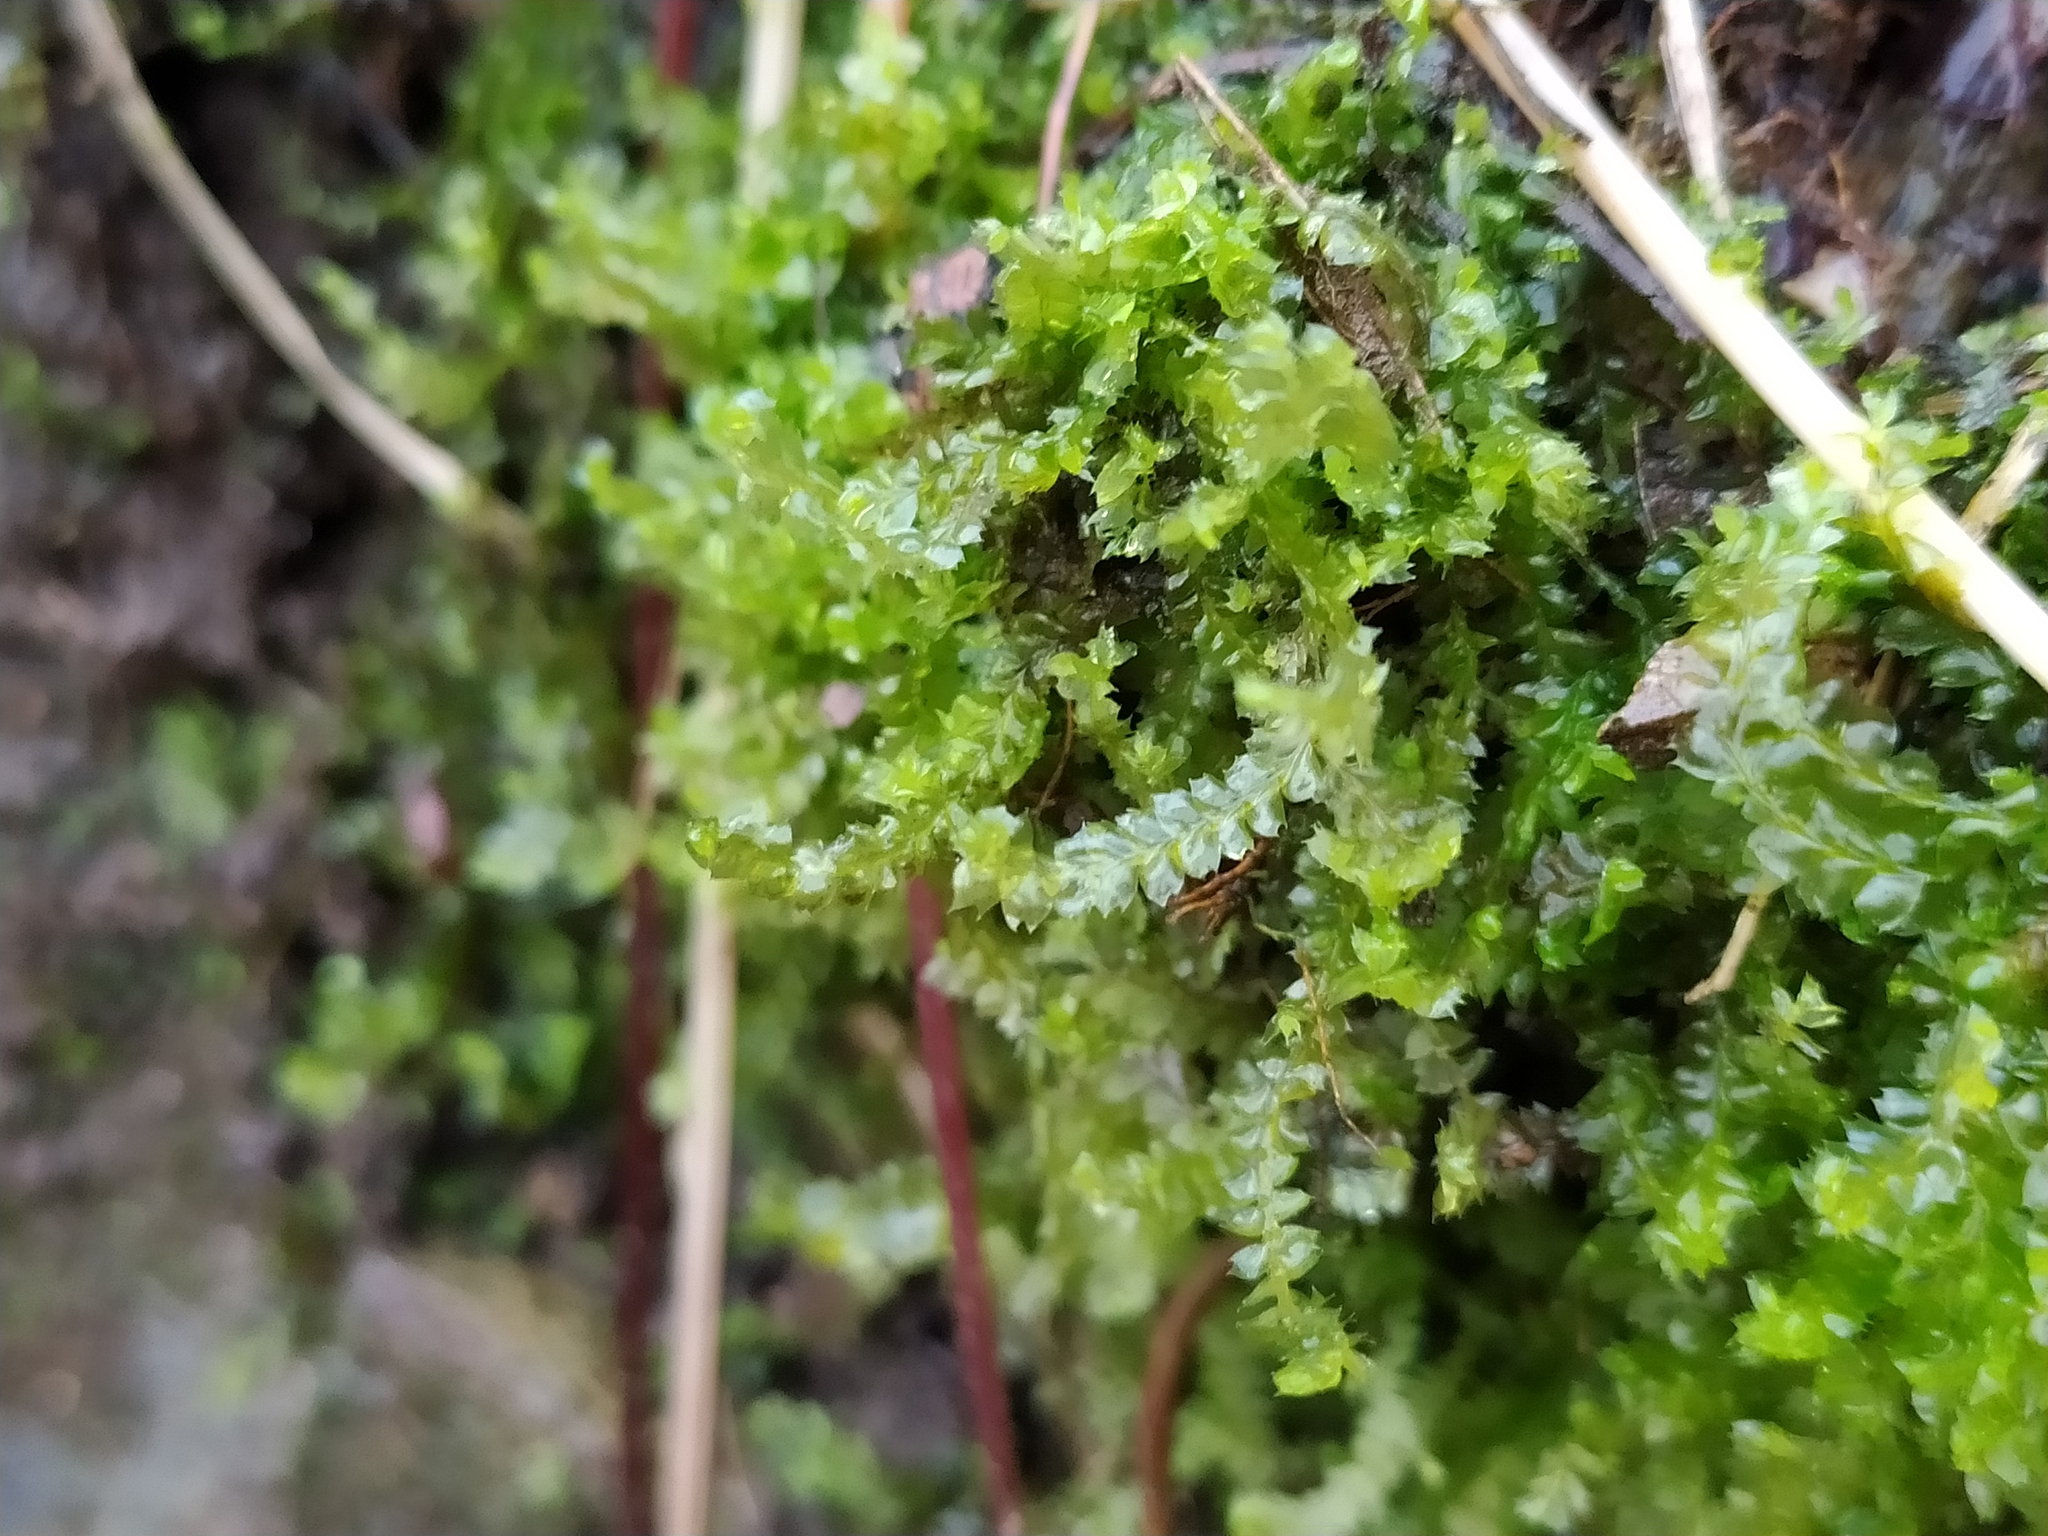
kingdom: Plantae
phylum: Marchantiophyta
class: Jungermanniopsida
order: Jungermanniales
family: Lophocoleaceae
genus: Lophocolea
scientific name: Lophocolea bidentata
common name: Bifid crestwort
